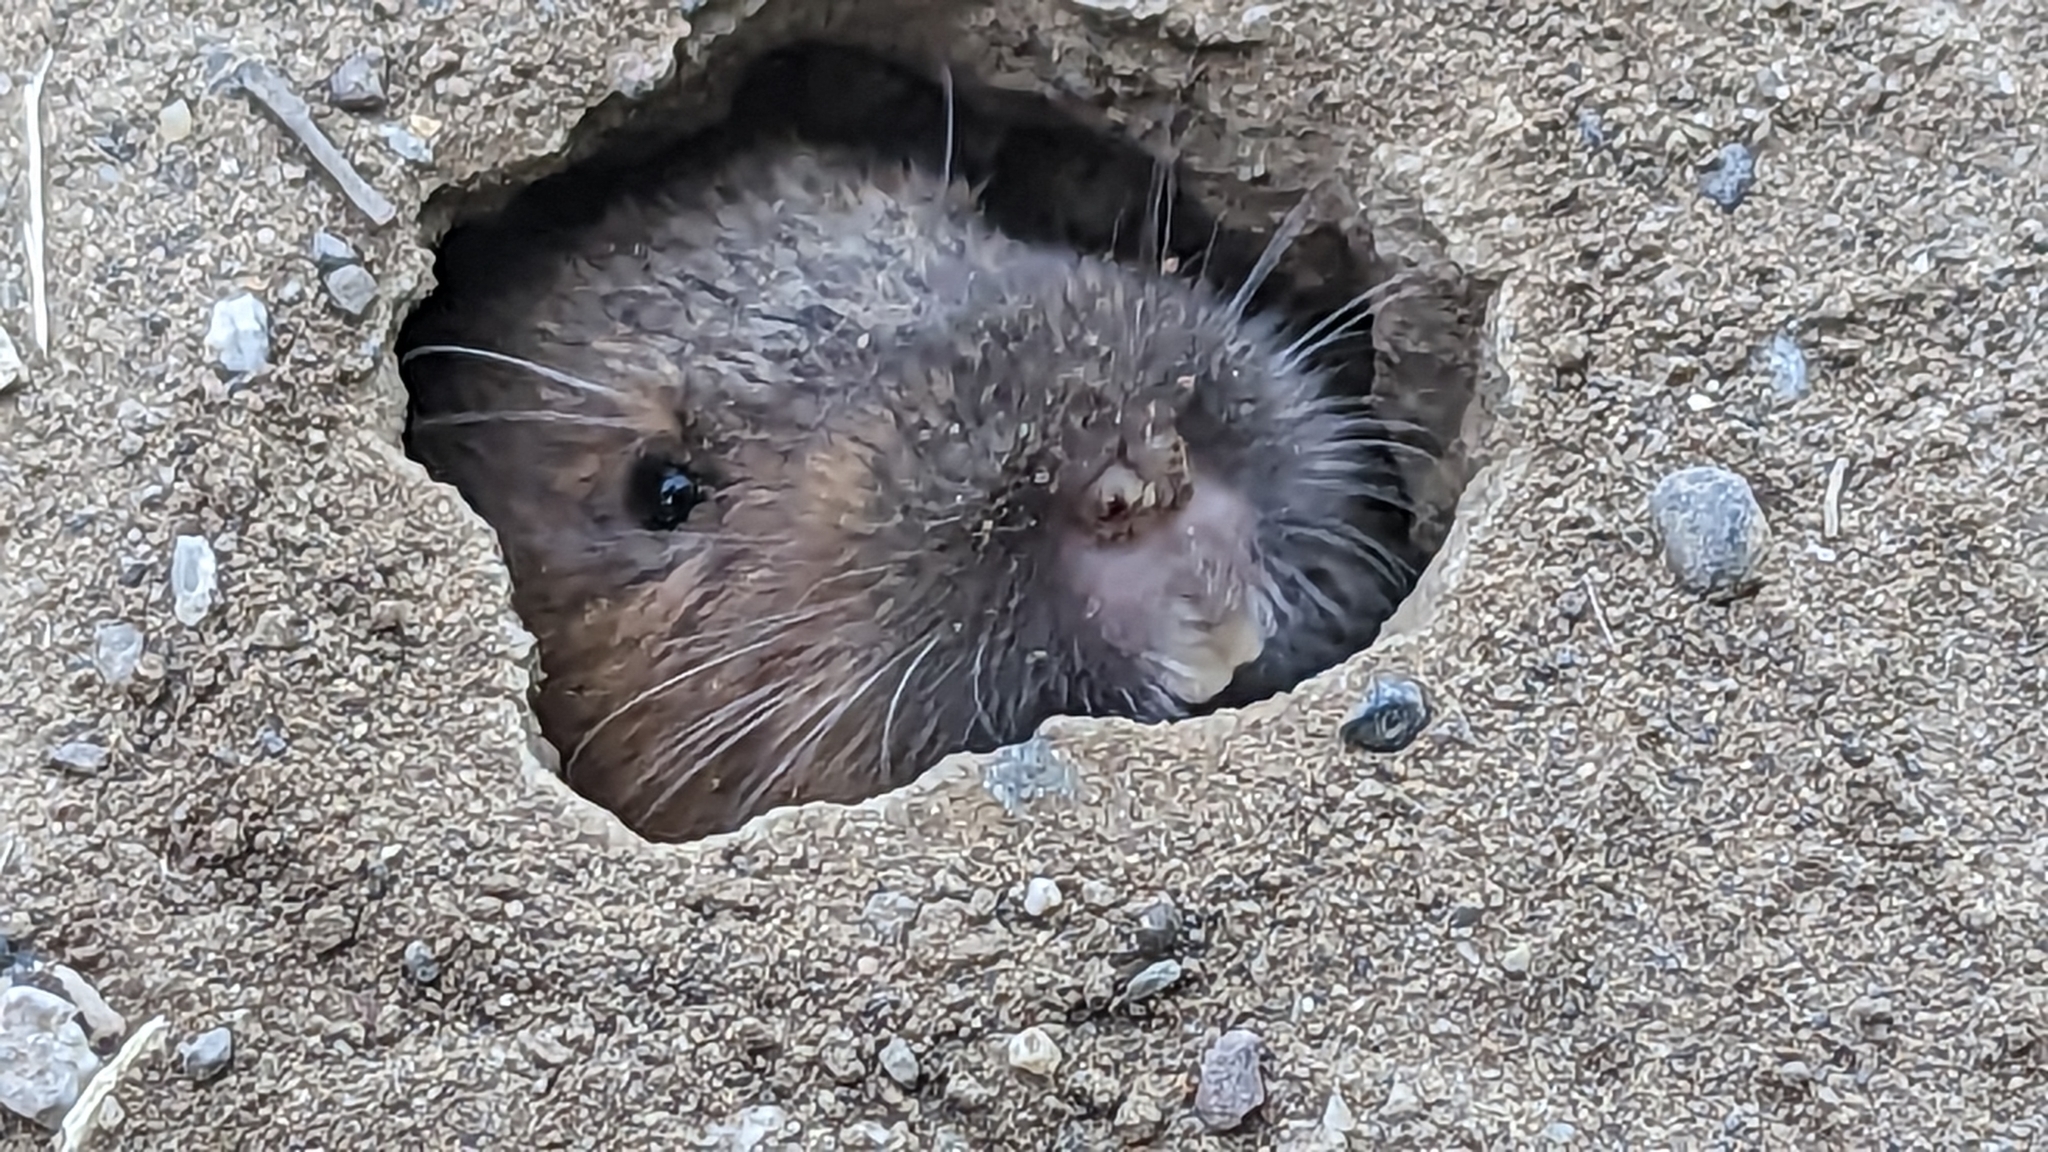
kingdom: Animalia
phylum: Chordata
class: Mammalia
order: Rodentia
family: Geomyidae
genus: Thomomys
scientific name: Thomomys bottae
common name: Botta's pocket gopher
